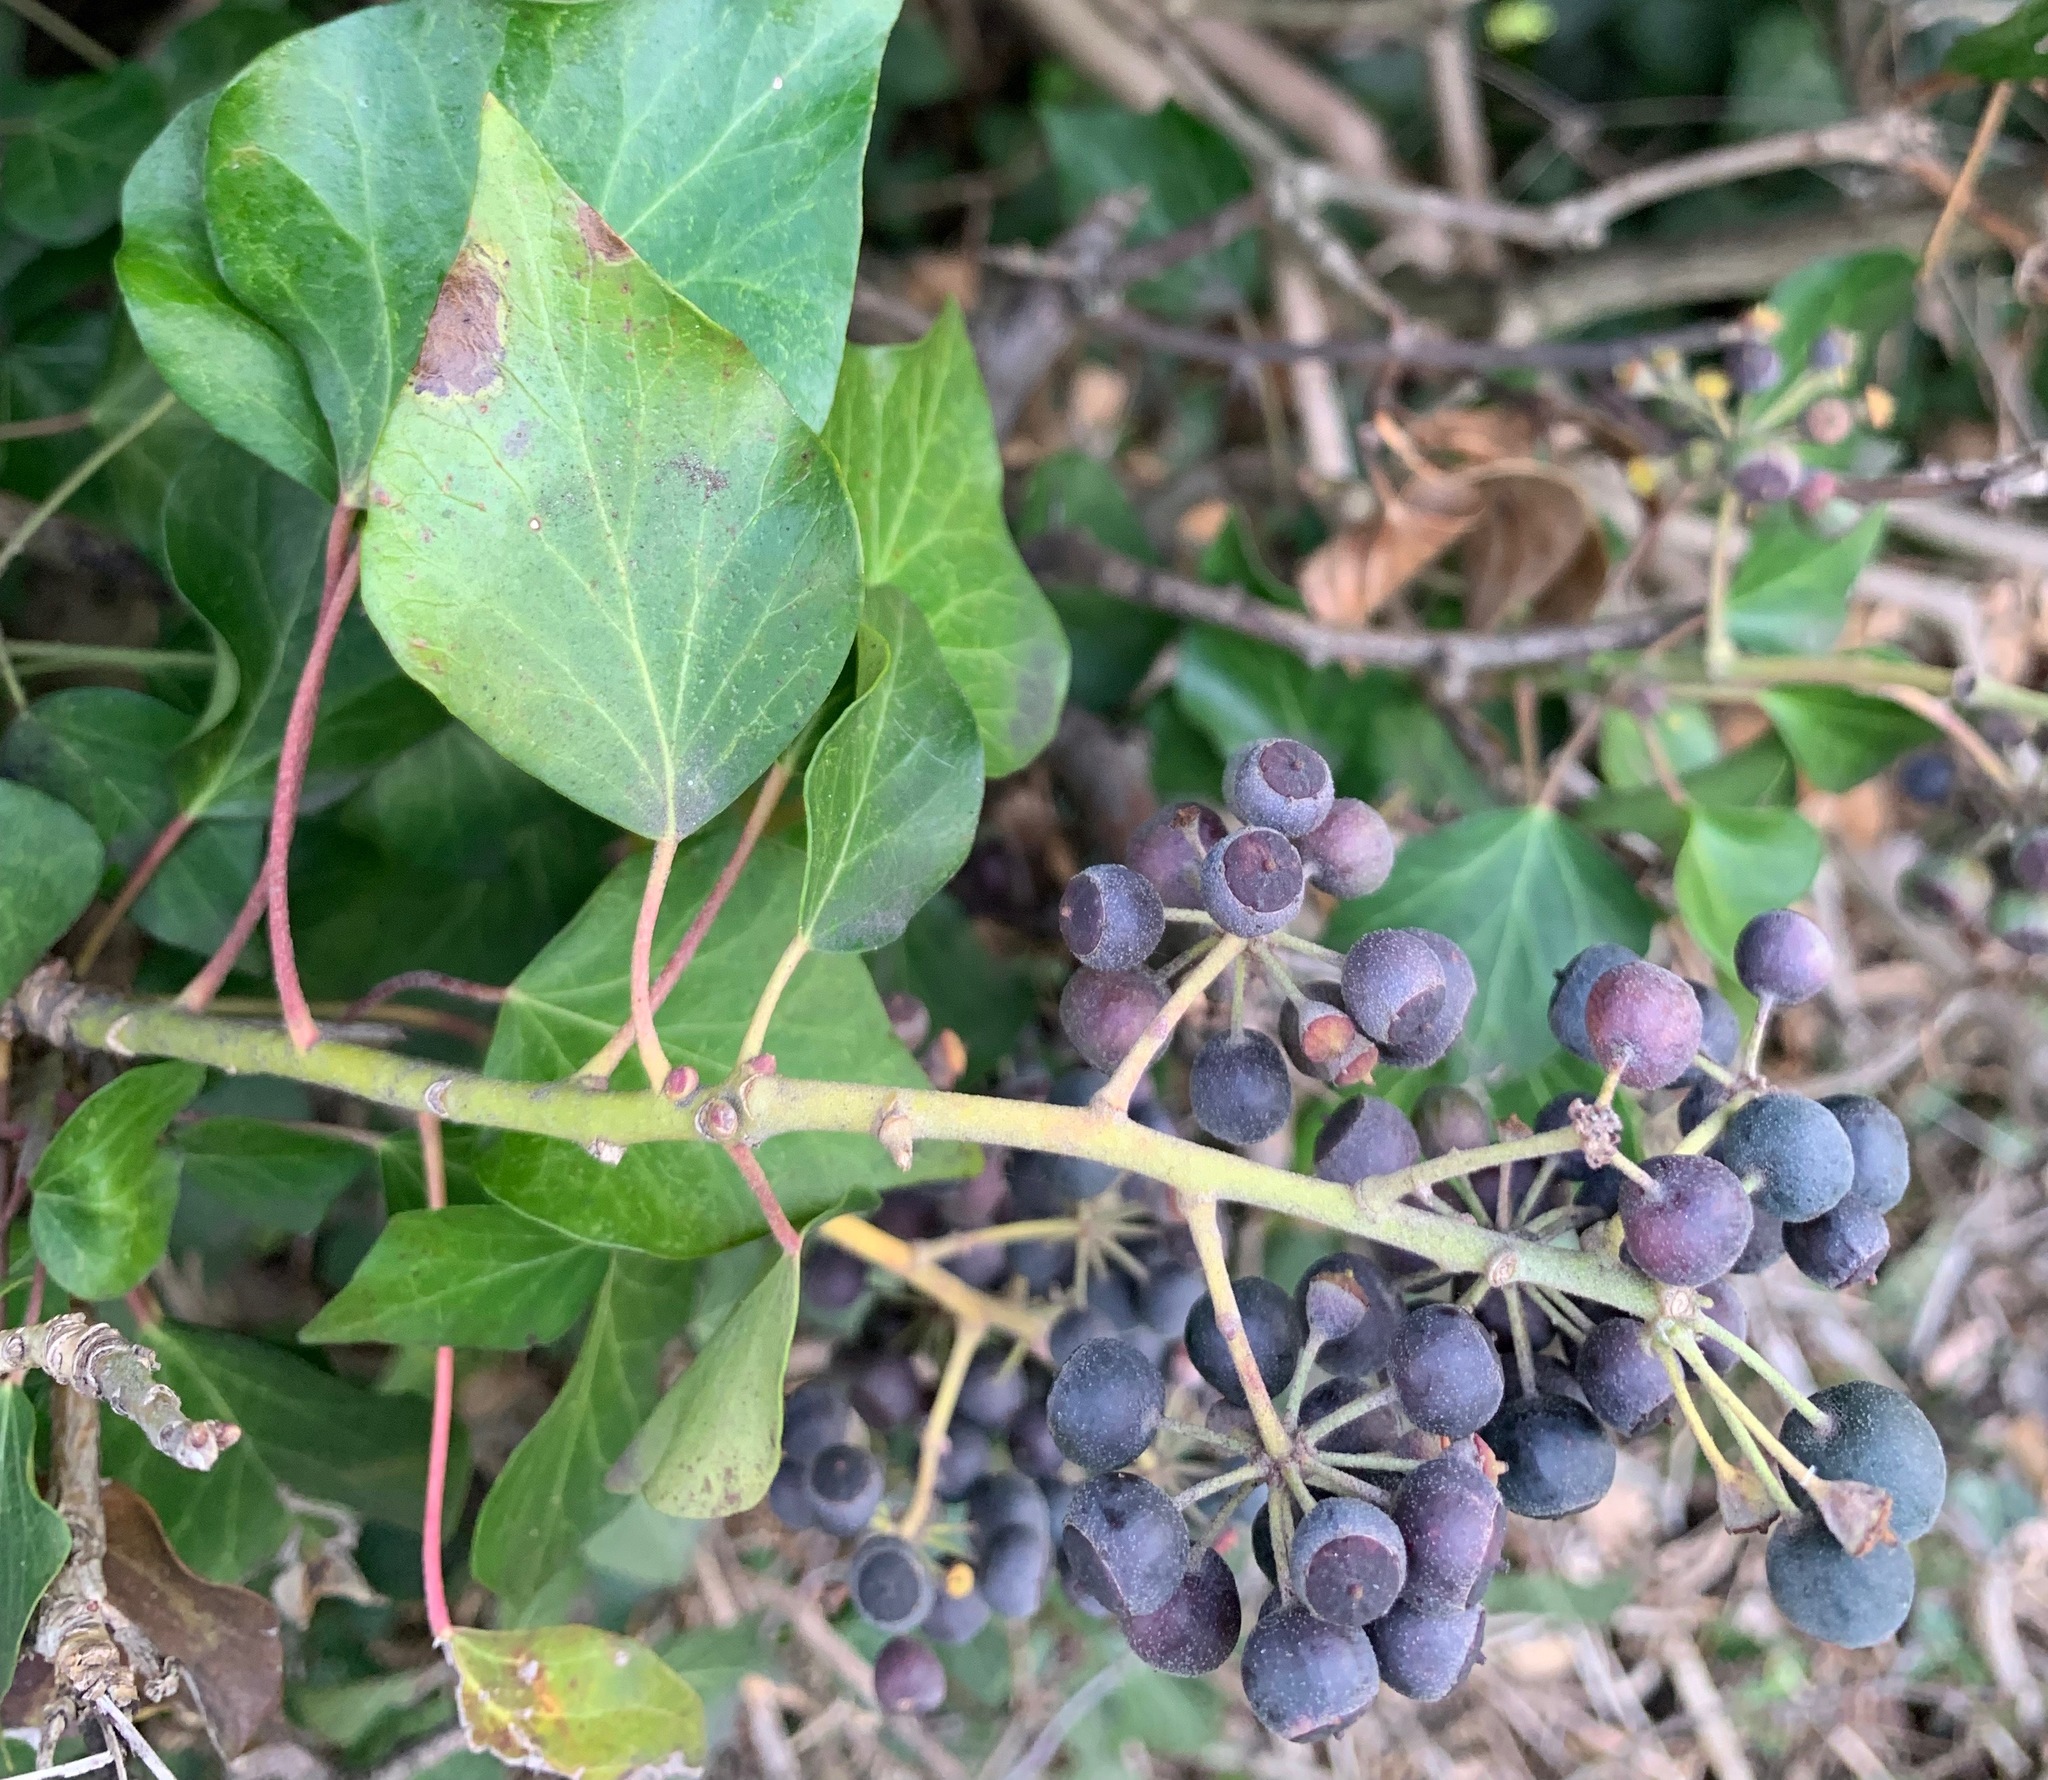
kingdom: Plantae
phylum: Tracheophyta
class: Magnoliopsida
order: Apiales
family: Araliaceae
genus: Hedera
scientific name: Hedera helix
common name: Ivy
